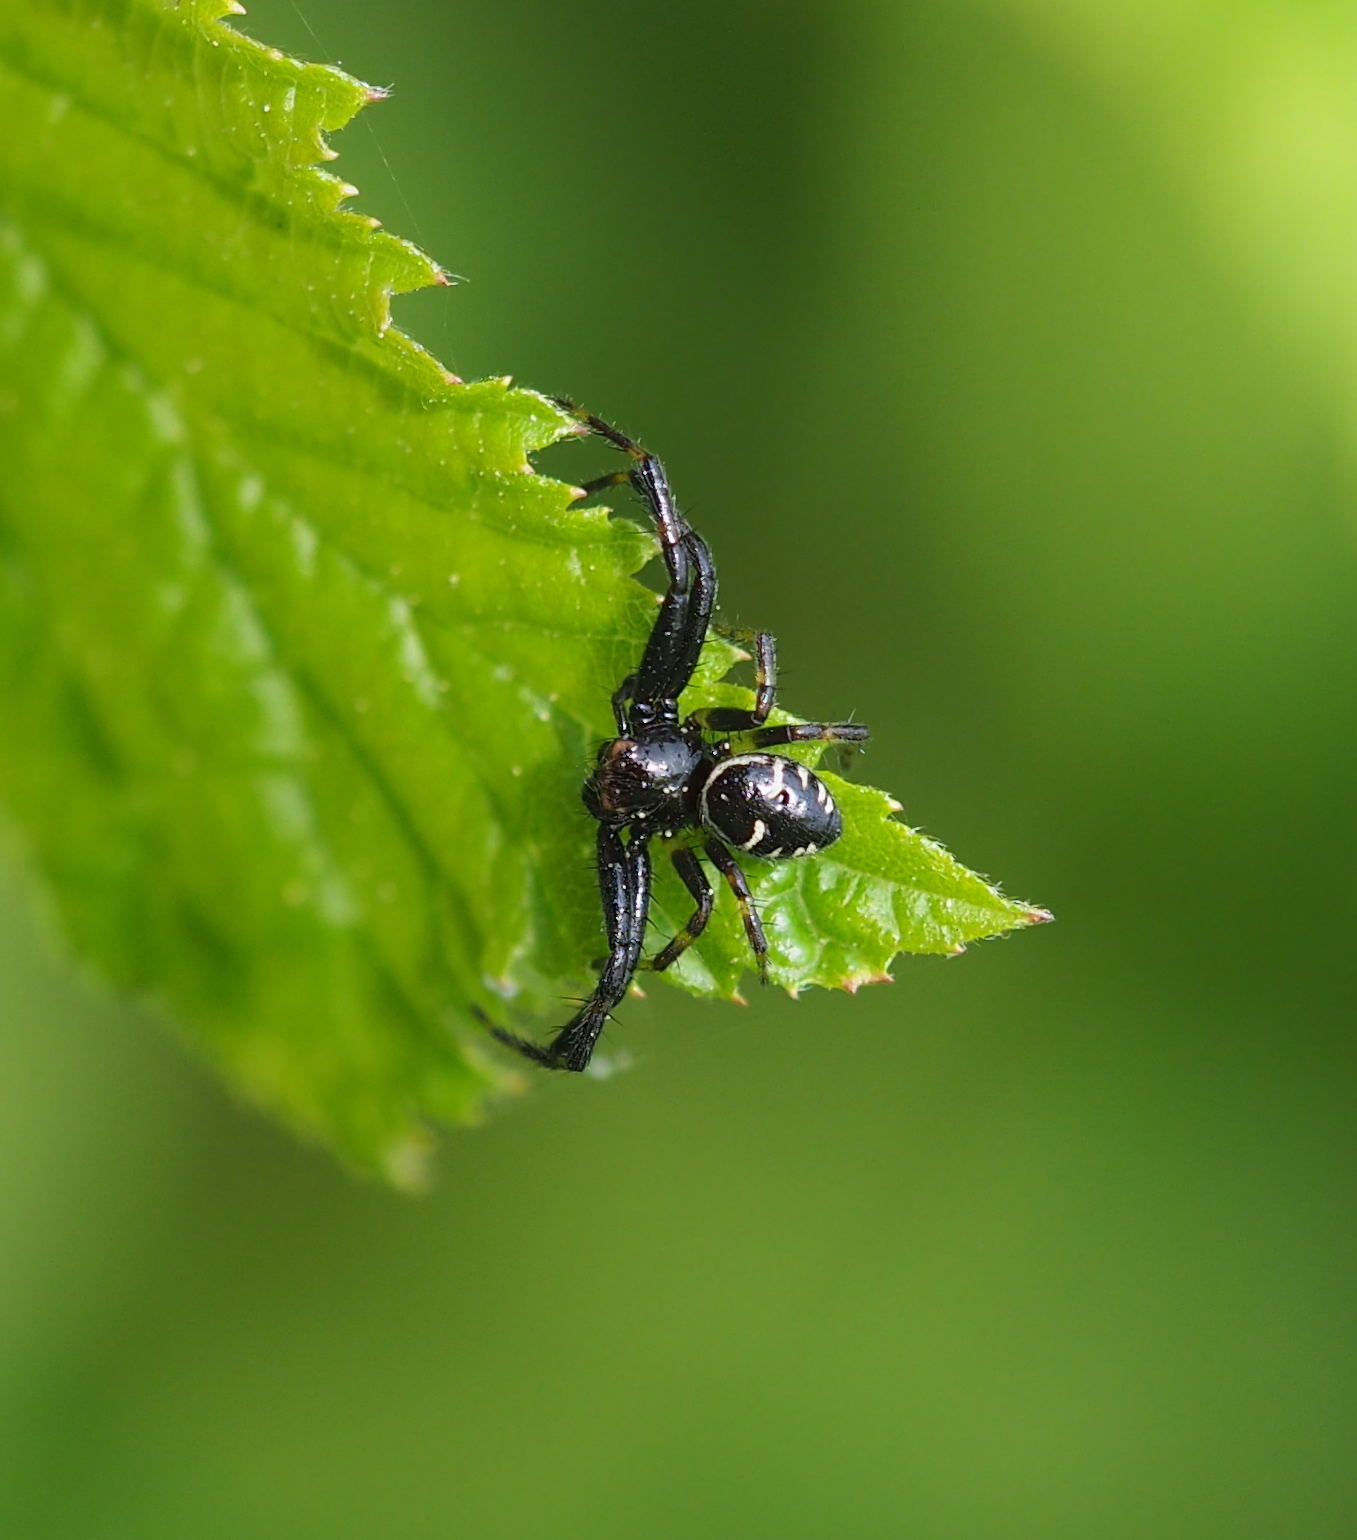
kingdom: Animalia
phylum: Arthropoda
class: Arachnida
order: Araneae
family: Thomisidae
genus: Synema
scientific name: Synema globosum
